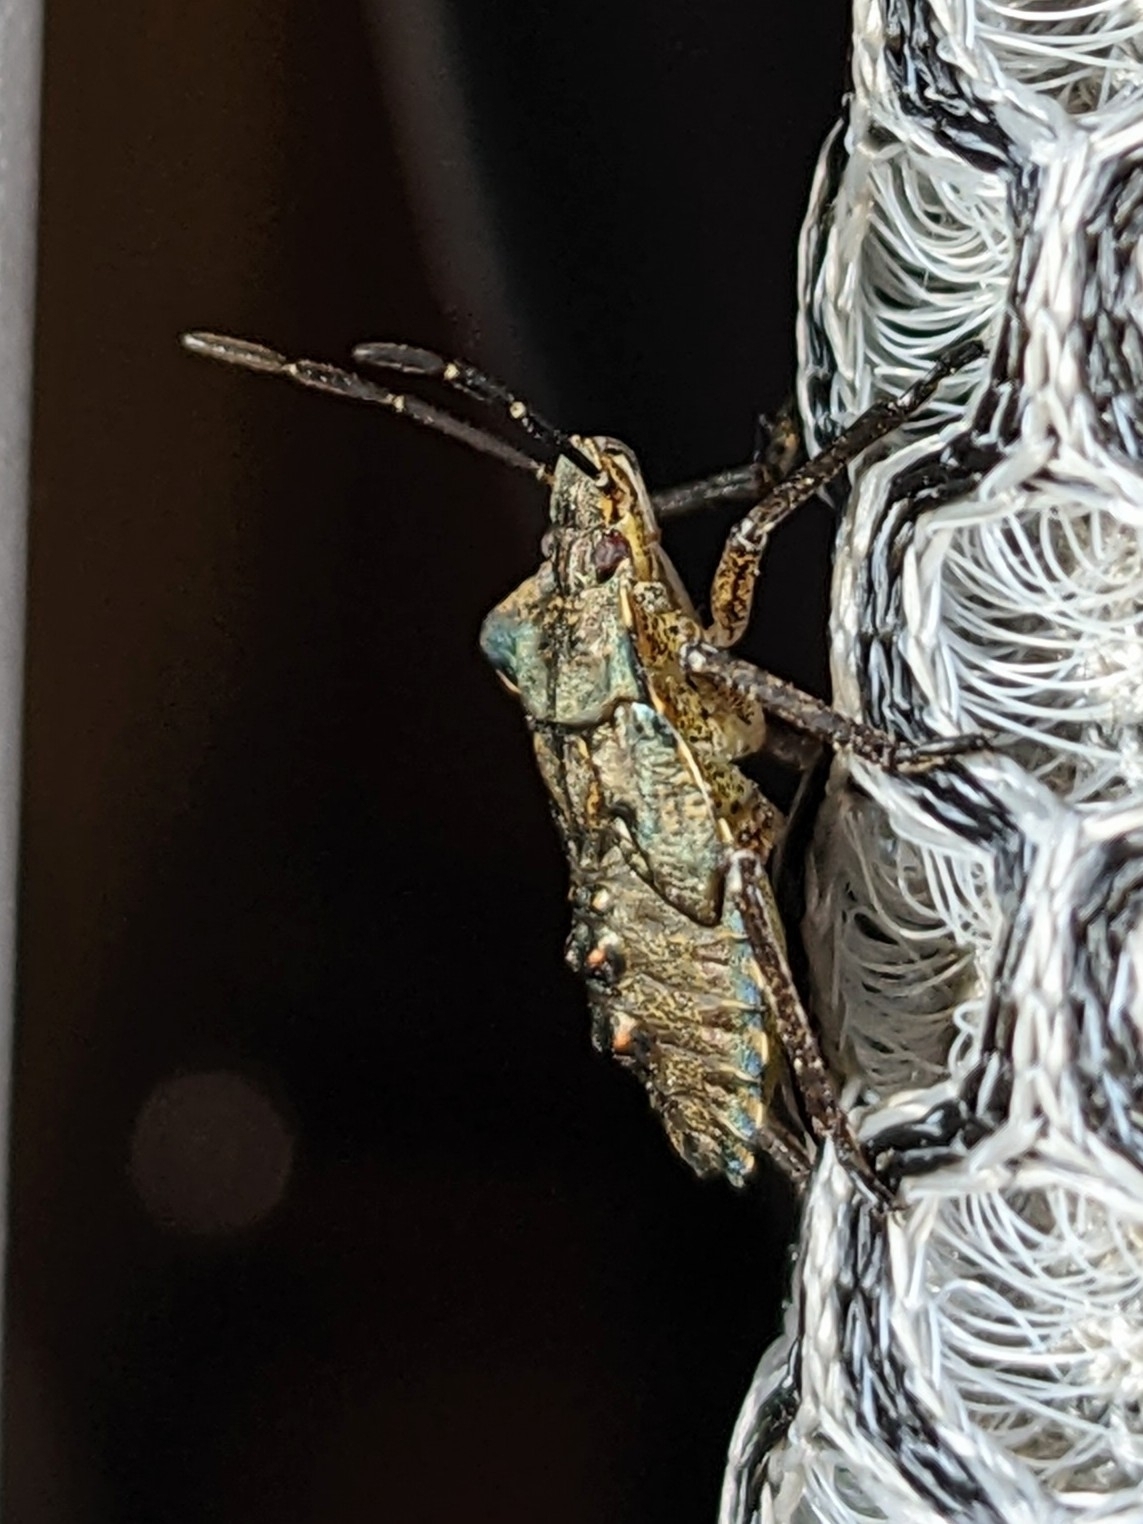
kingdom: Animalia
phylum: Arthropoda
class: Insecta
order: Hemiptera
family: Pentatomidae
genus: Pentatoma
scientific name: Pentatoma rufipes
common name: Forest bug
